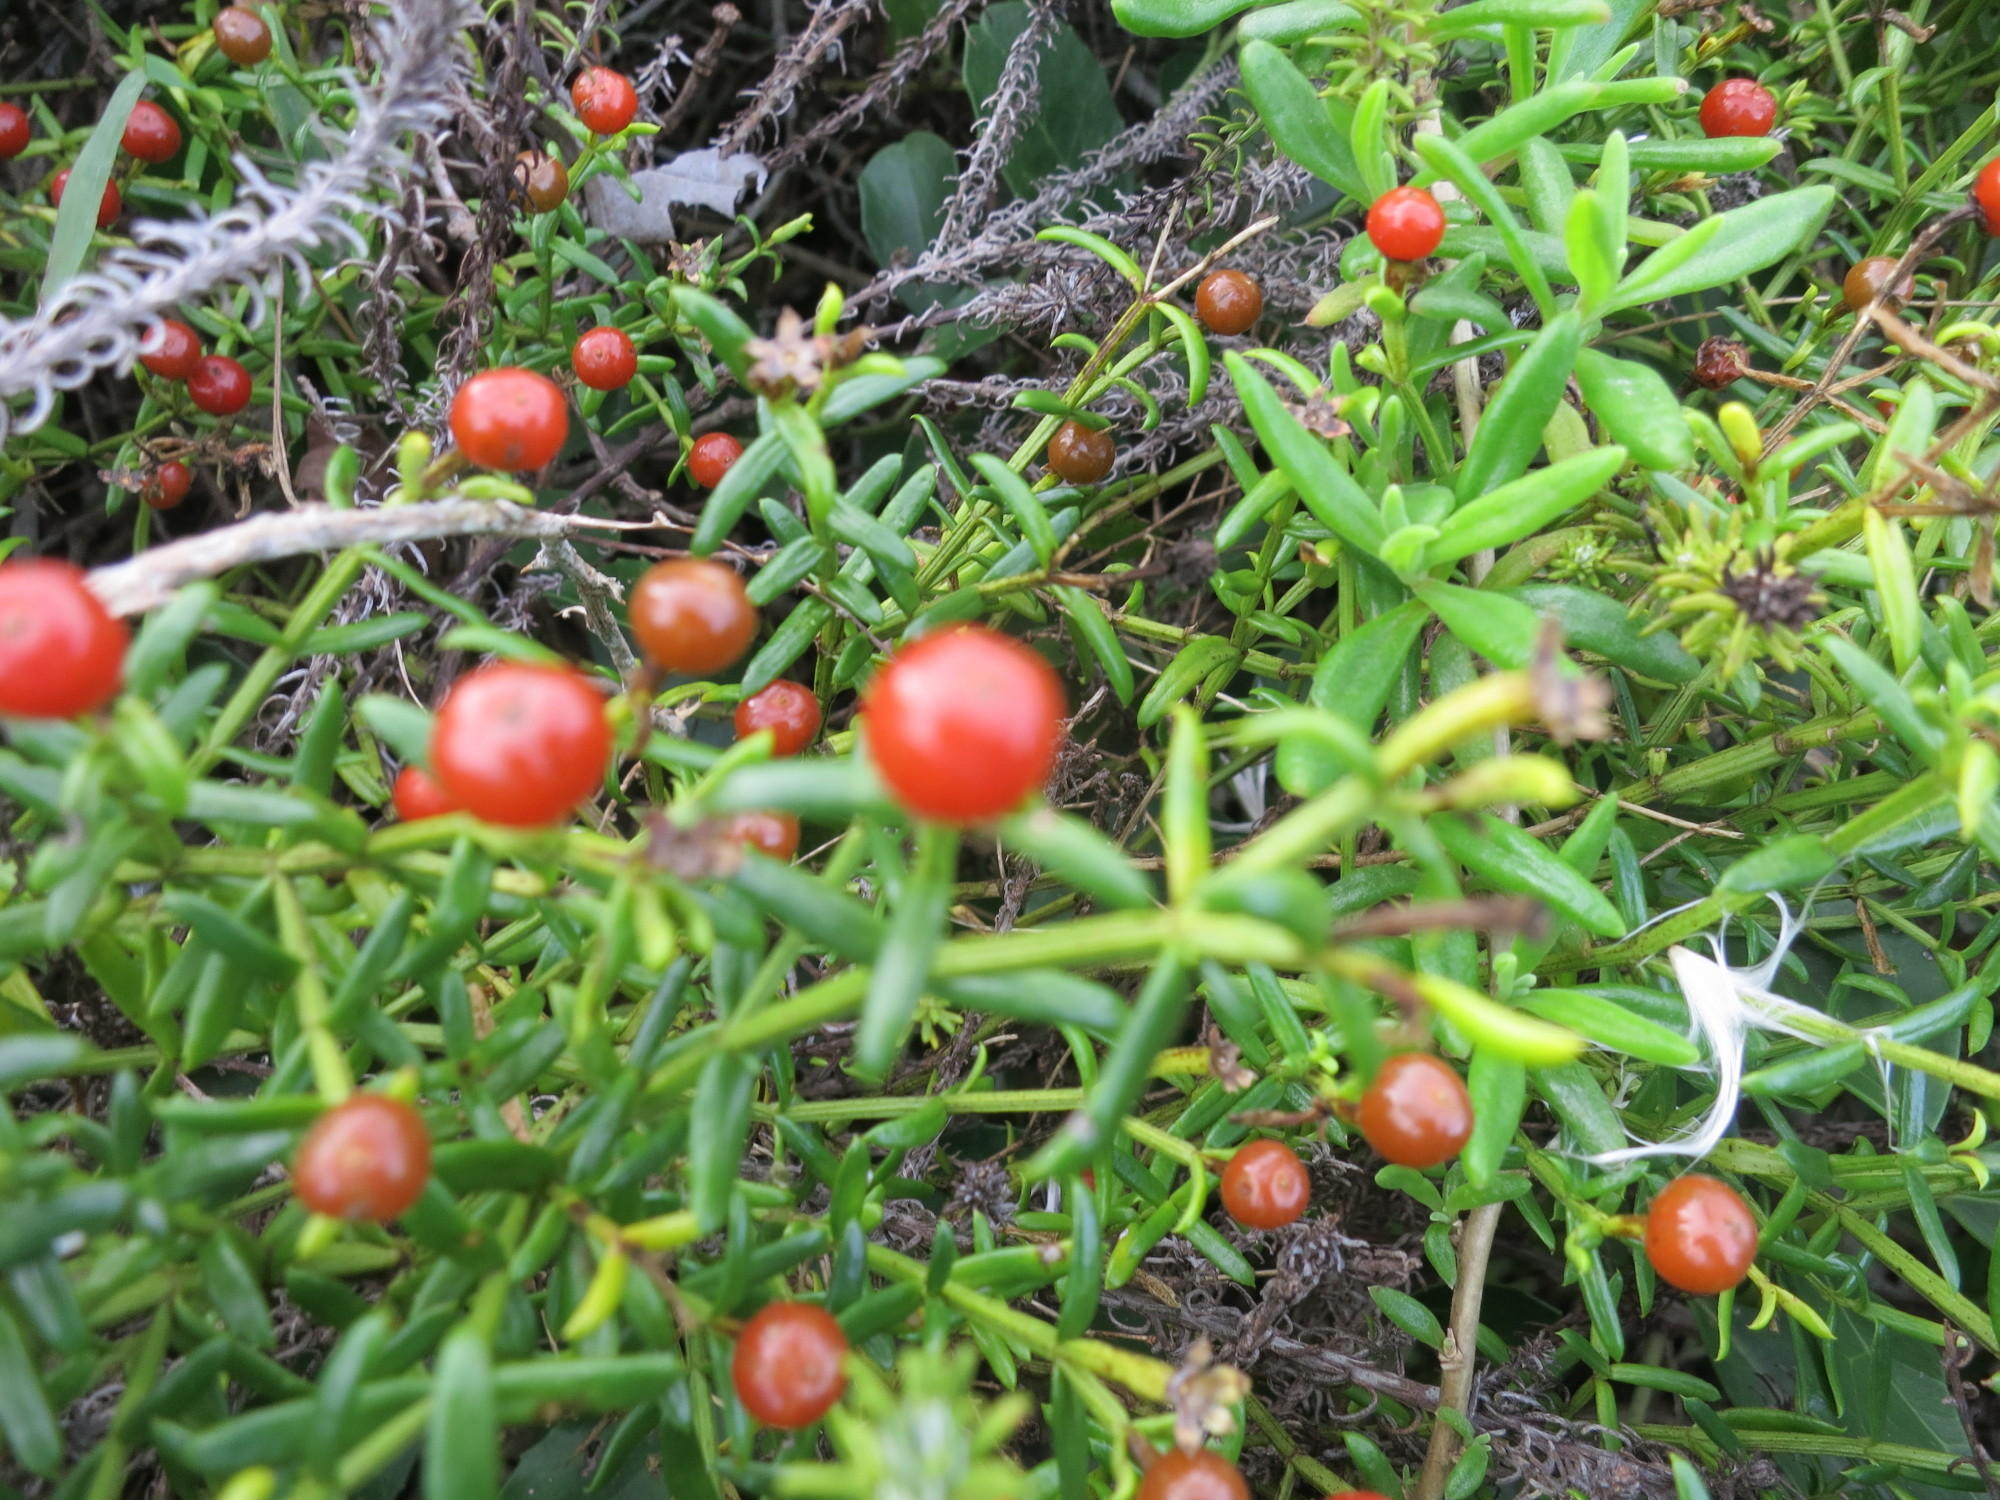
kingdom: Plantae
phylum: Tracheophyta
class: Magnoliopsida
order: Gentianales
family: Gentianaceae
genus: Chironia
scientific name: Chironia baccifera
